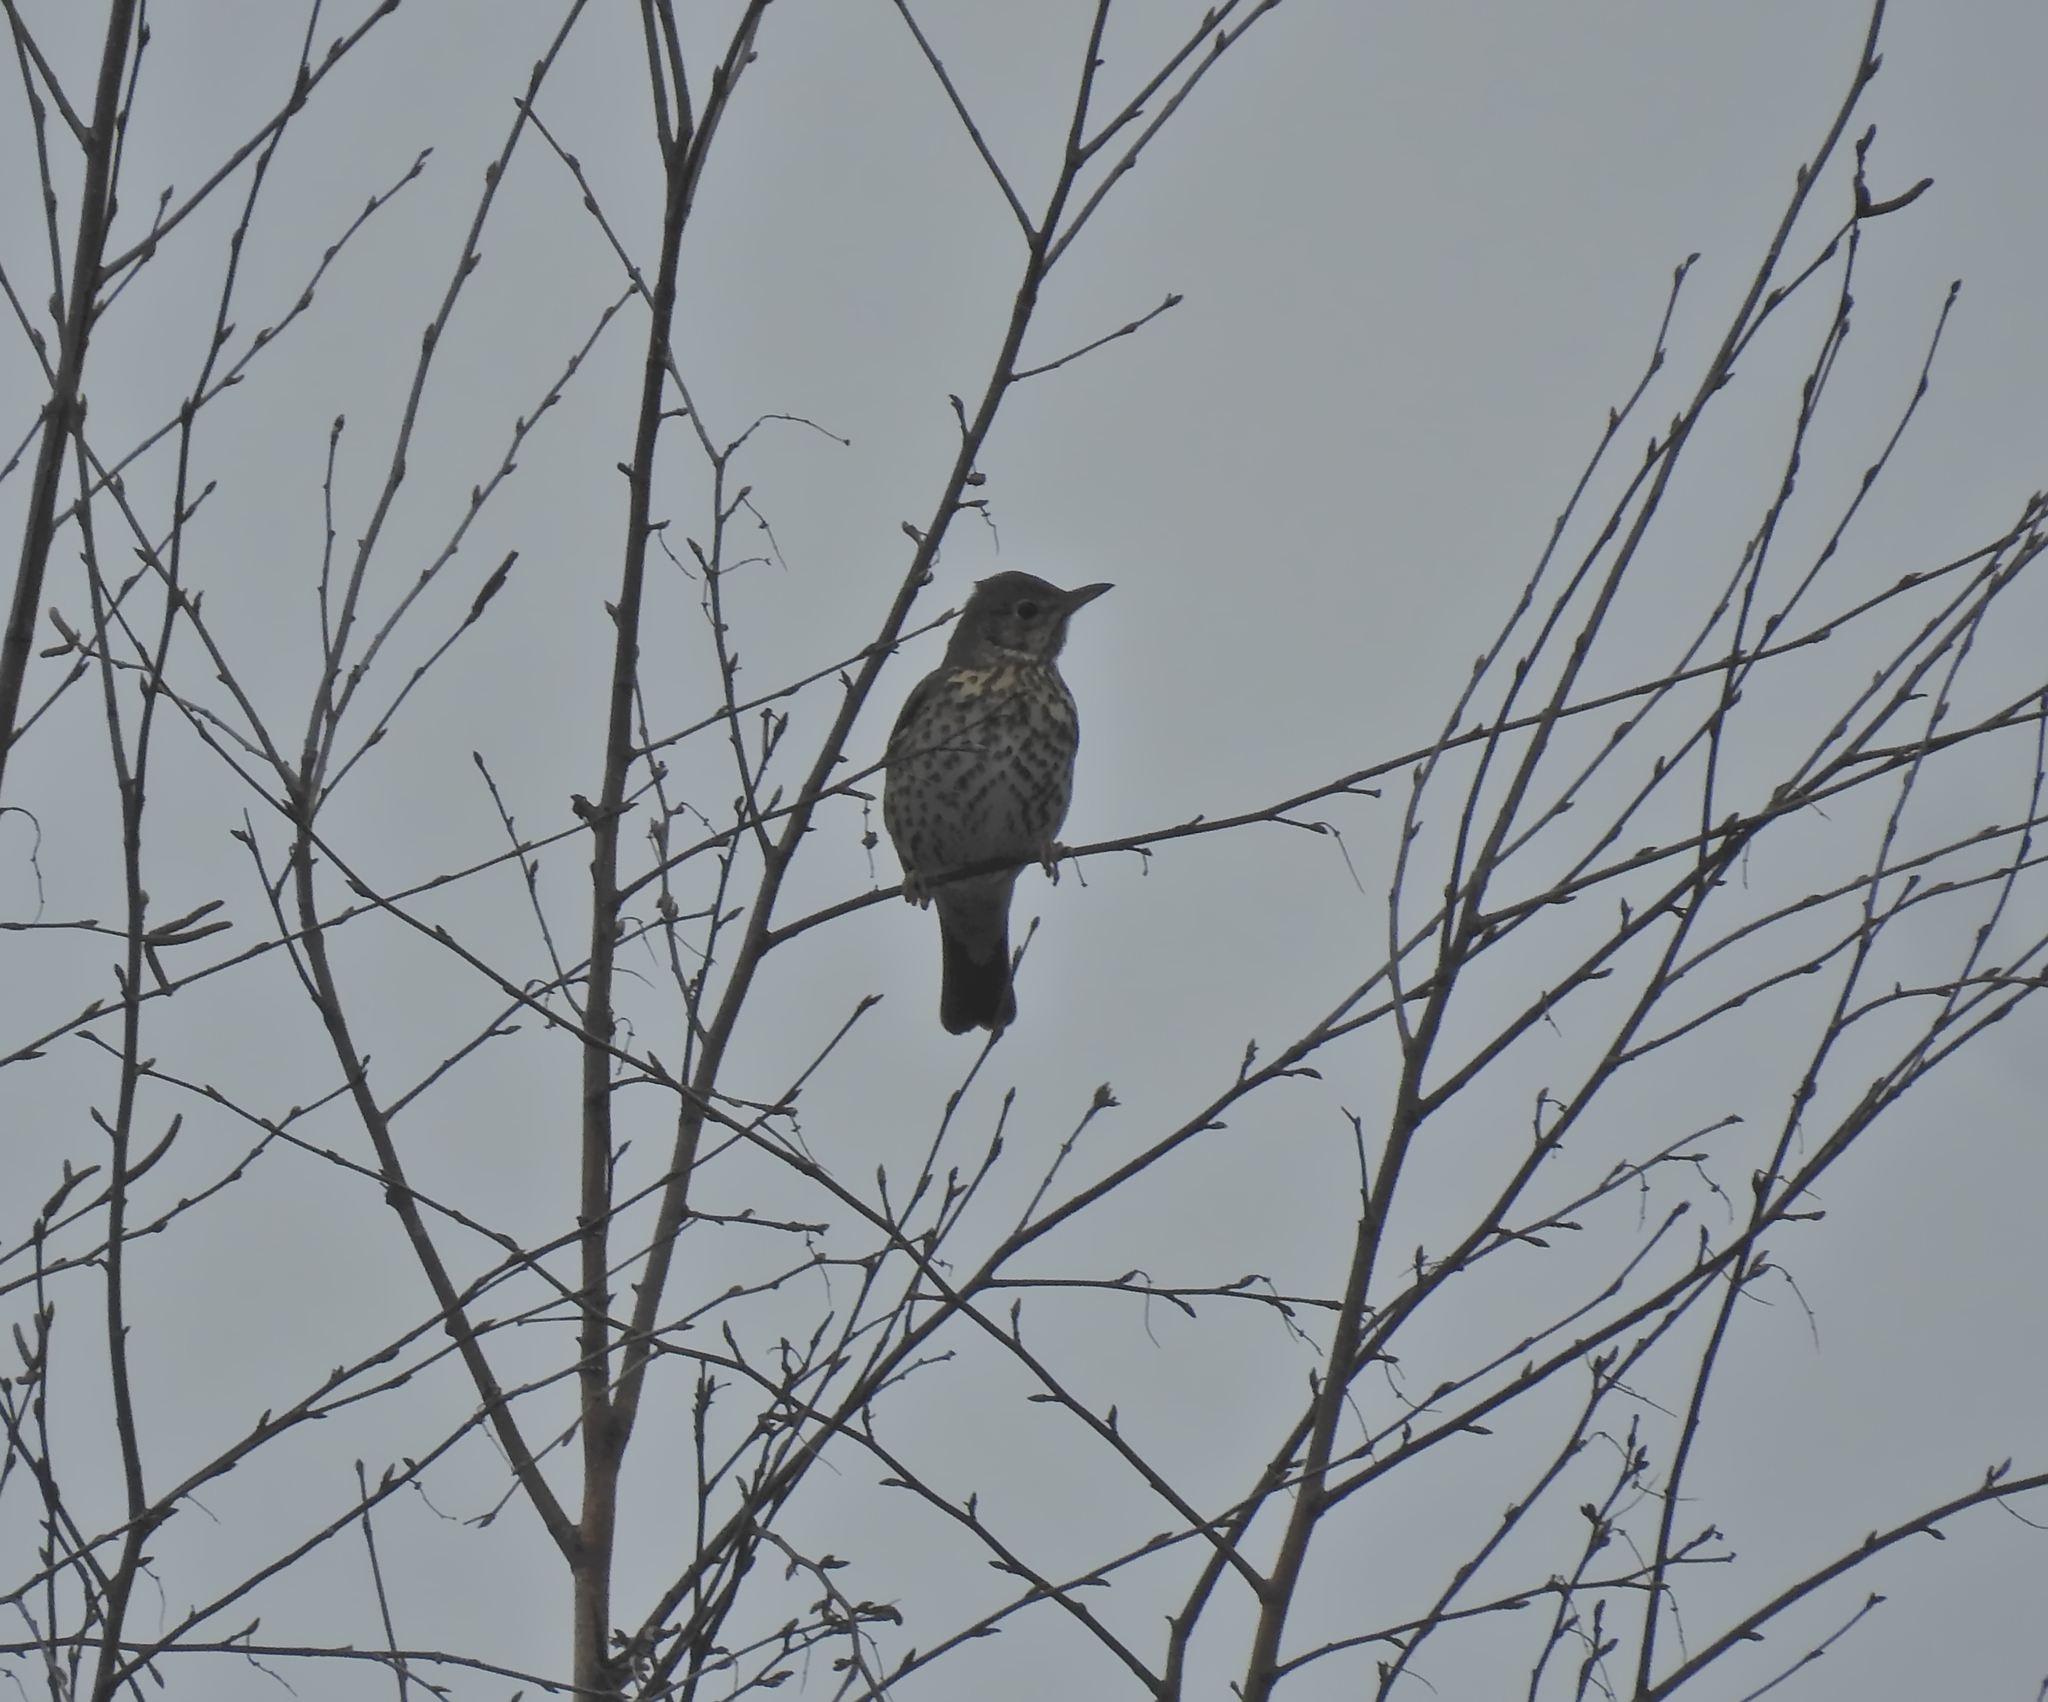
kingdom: Animalia
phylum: Chordata
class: Aves
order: Passeriformes
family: Turdidae
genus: Turdus
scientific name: Turdus philomelos
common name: Song thrush
